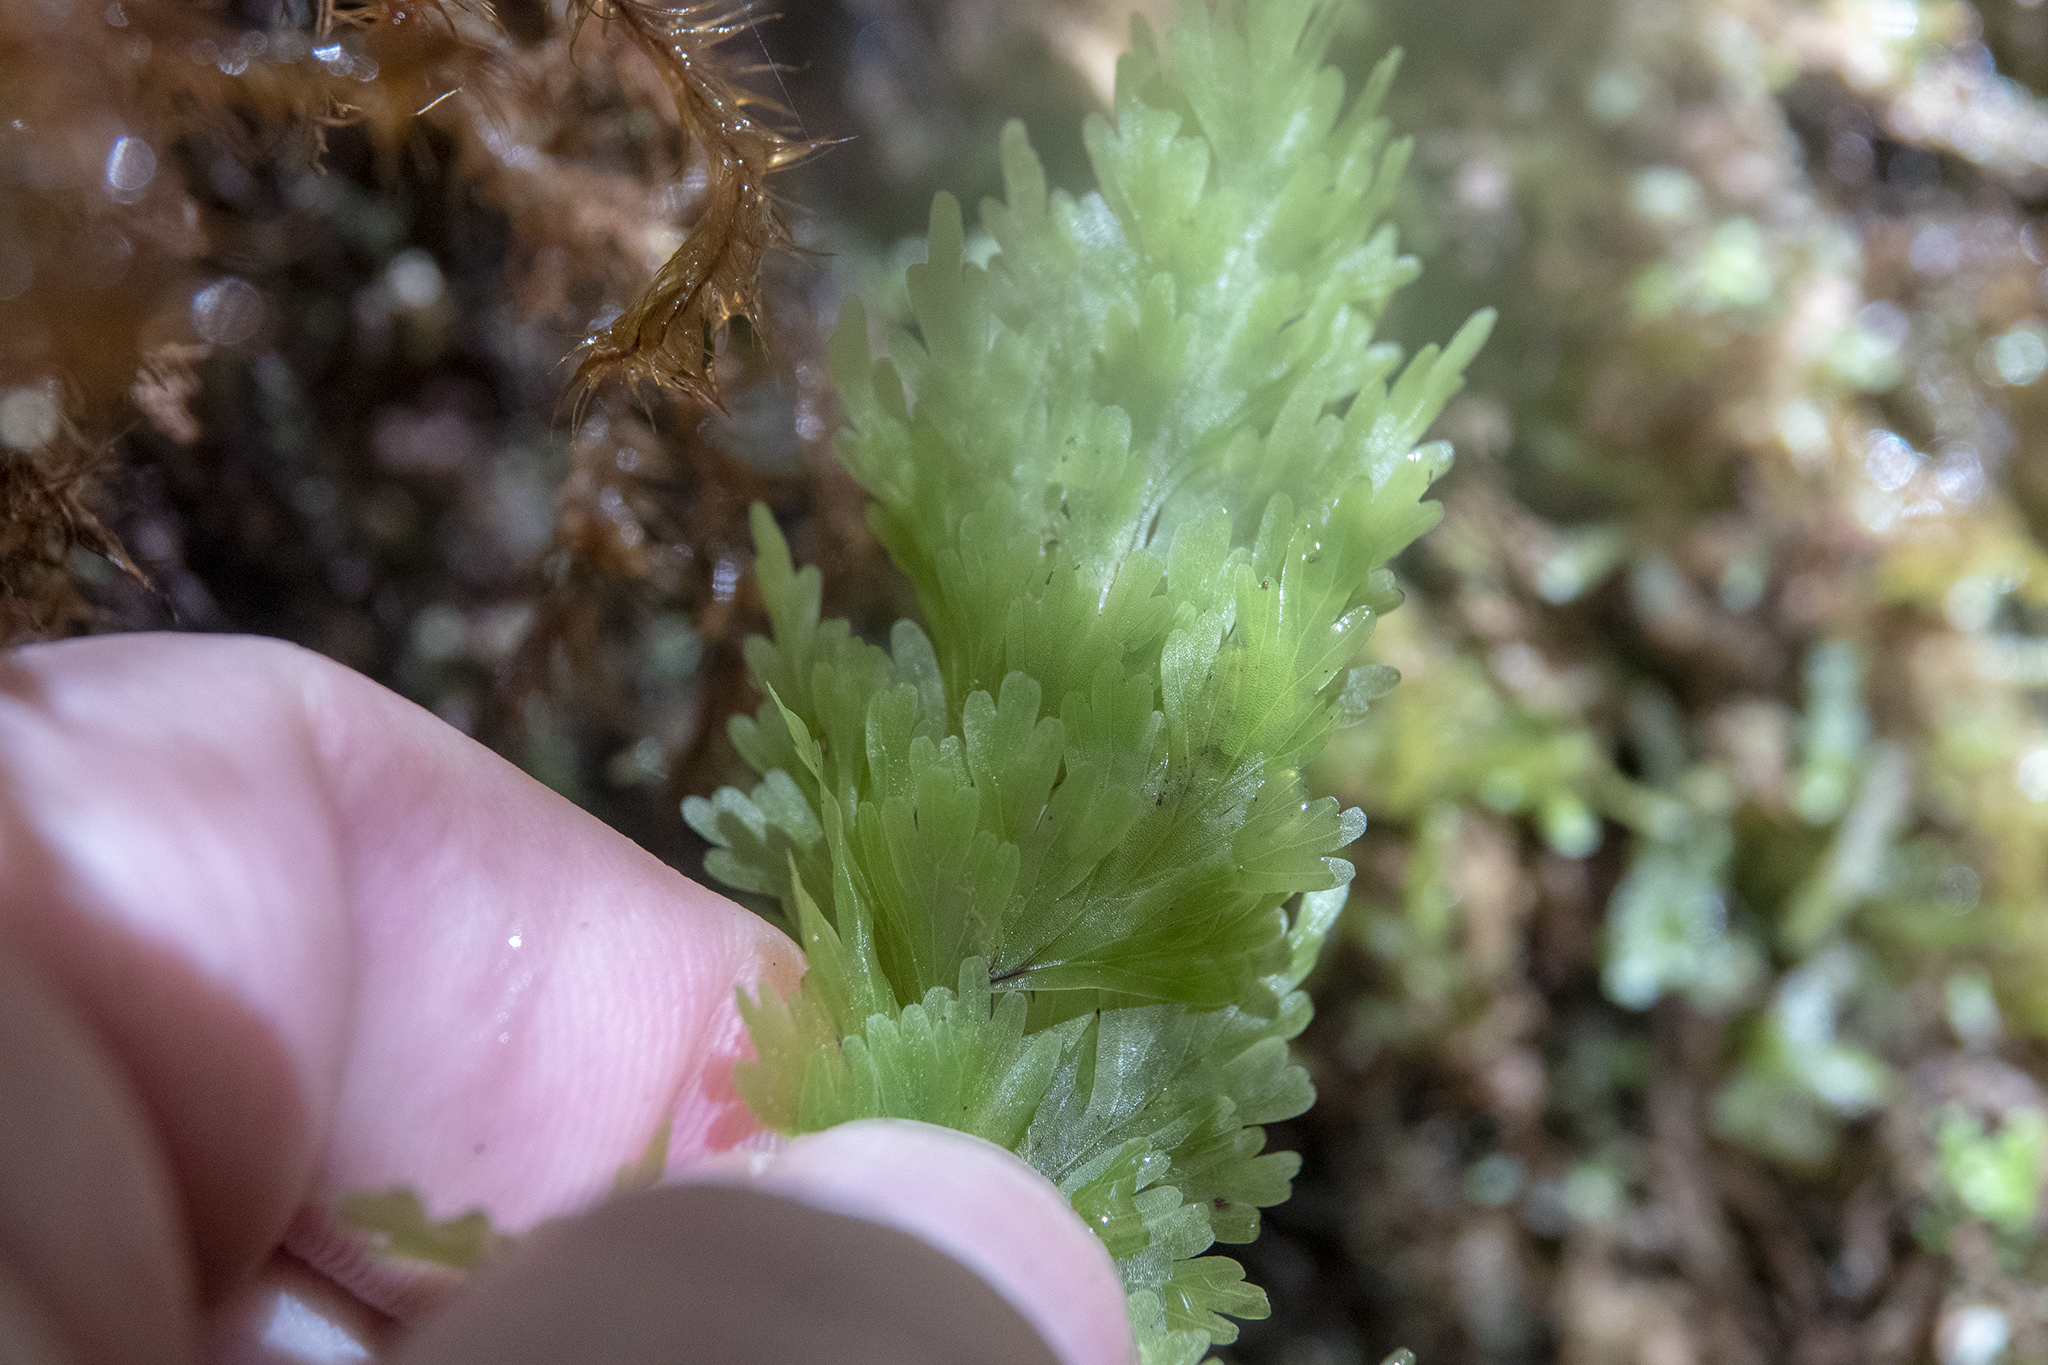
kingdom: Plantae
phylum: Tracheophyta
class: Polypodiopsida
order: Hymenophyllales
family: Hymenophyllaceae
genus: Hymenophyllum
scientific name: Hymenophyllum flabellatum
